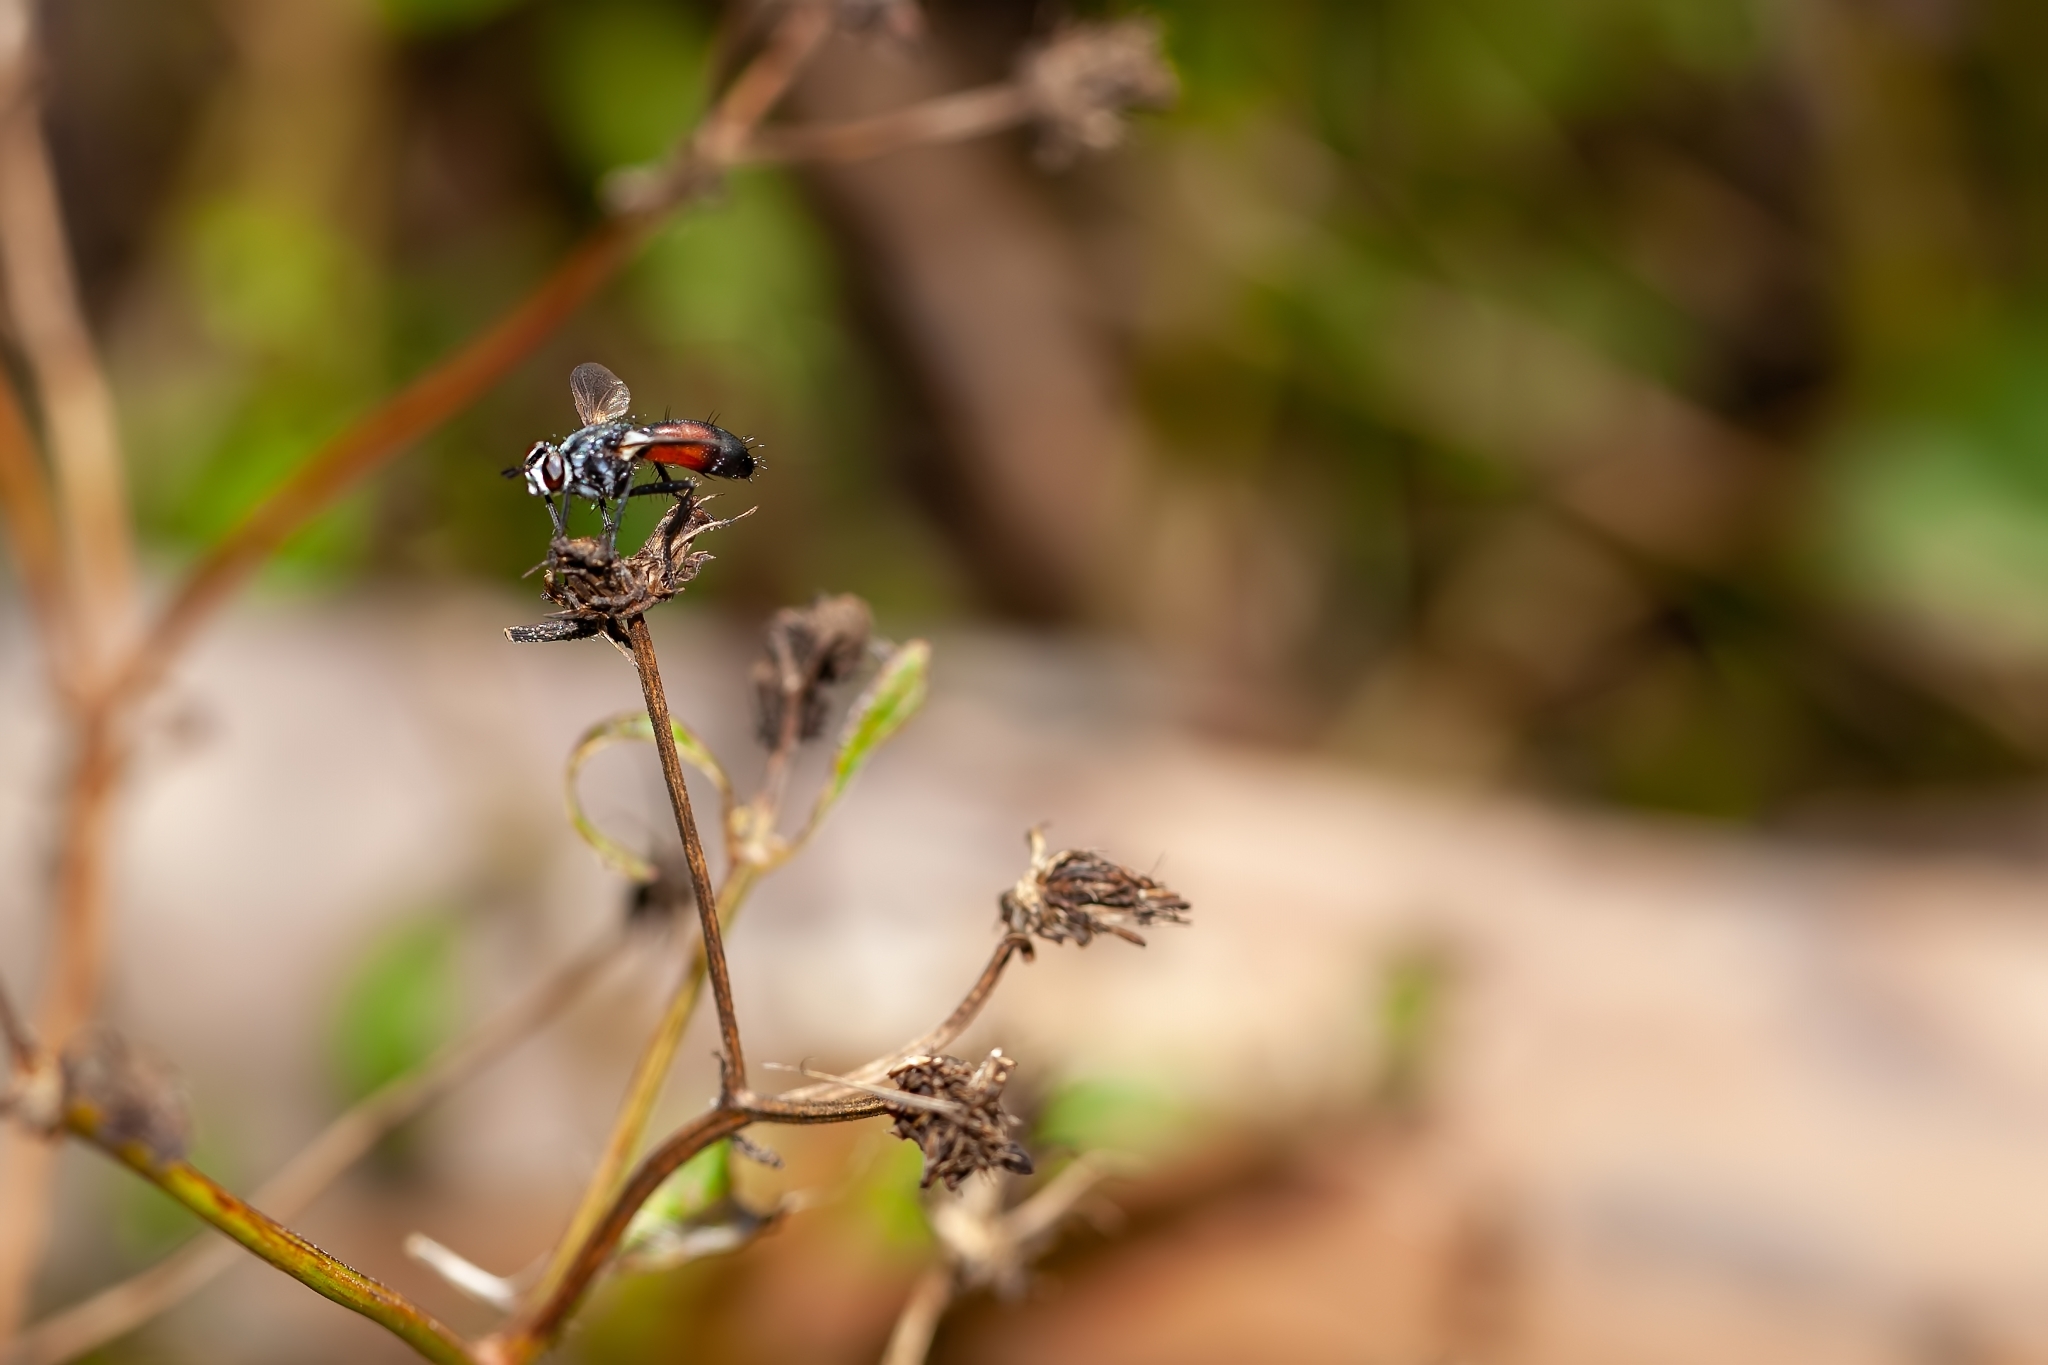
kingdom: Animalia
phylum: Arthropoda
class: Insecta
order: Diptera
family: Tachinidae
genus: Cylindromyia
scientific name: Cylindromyia
